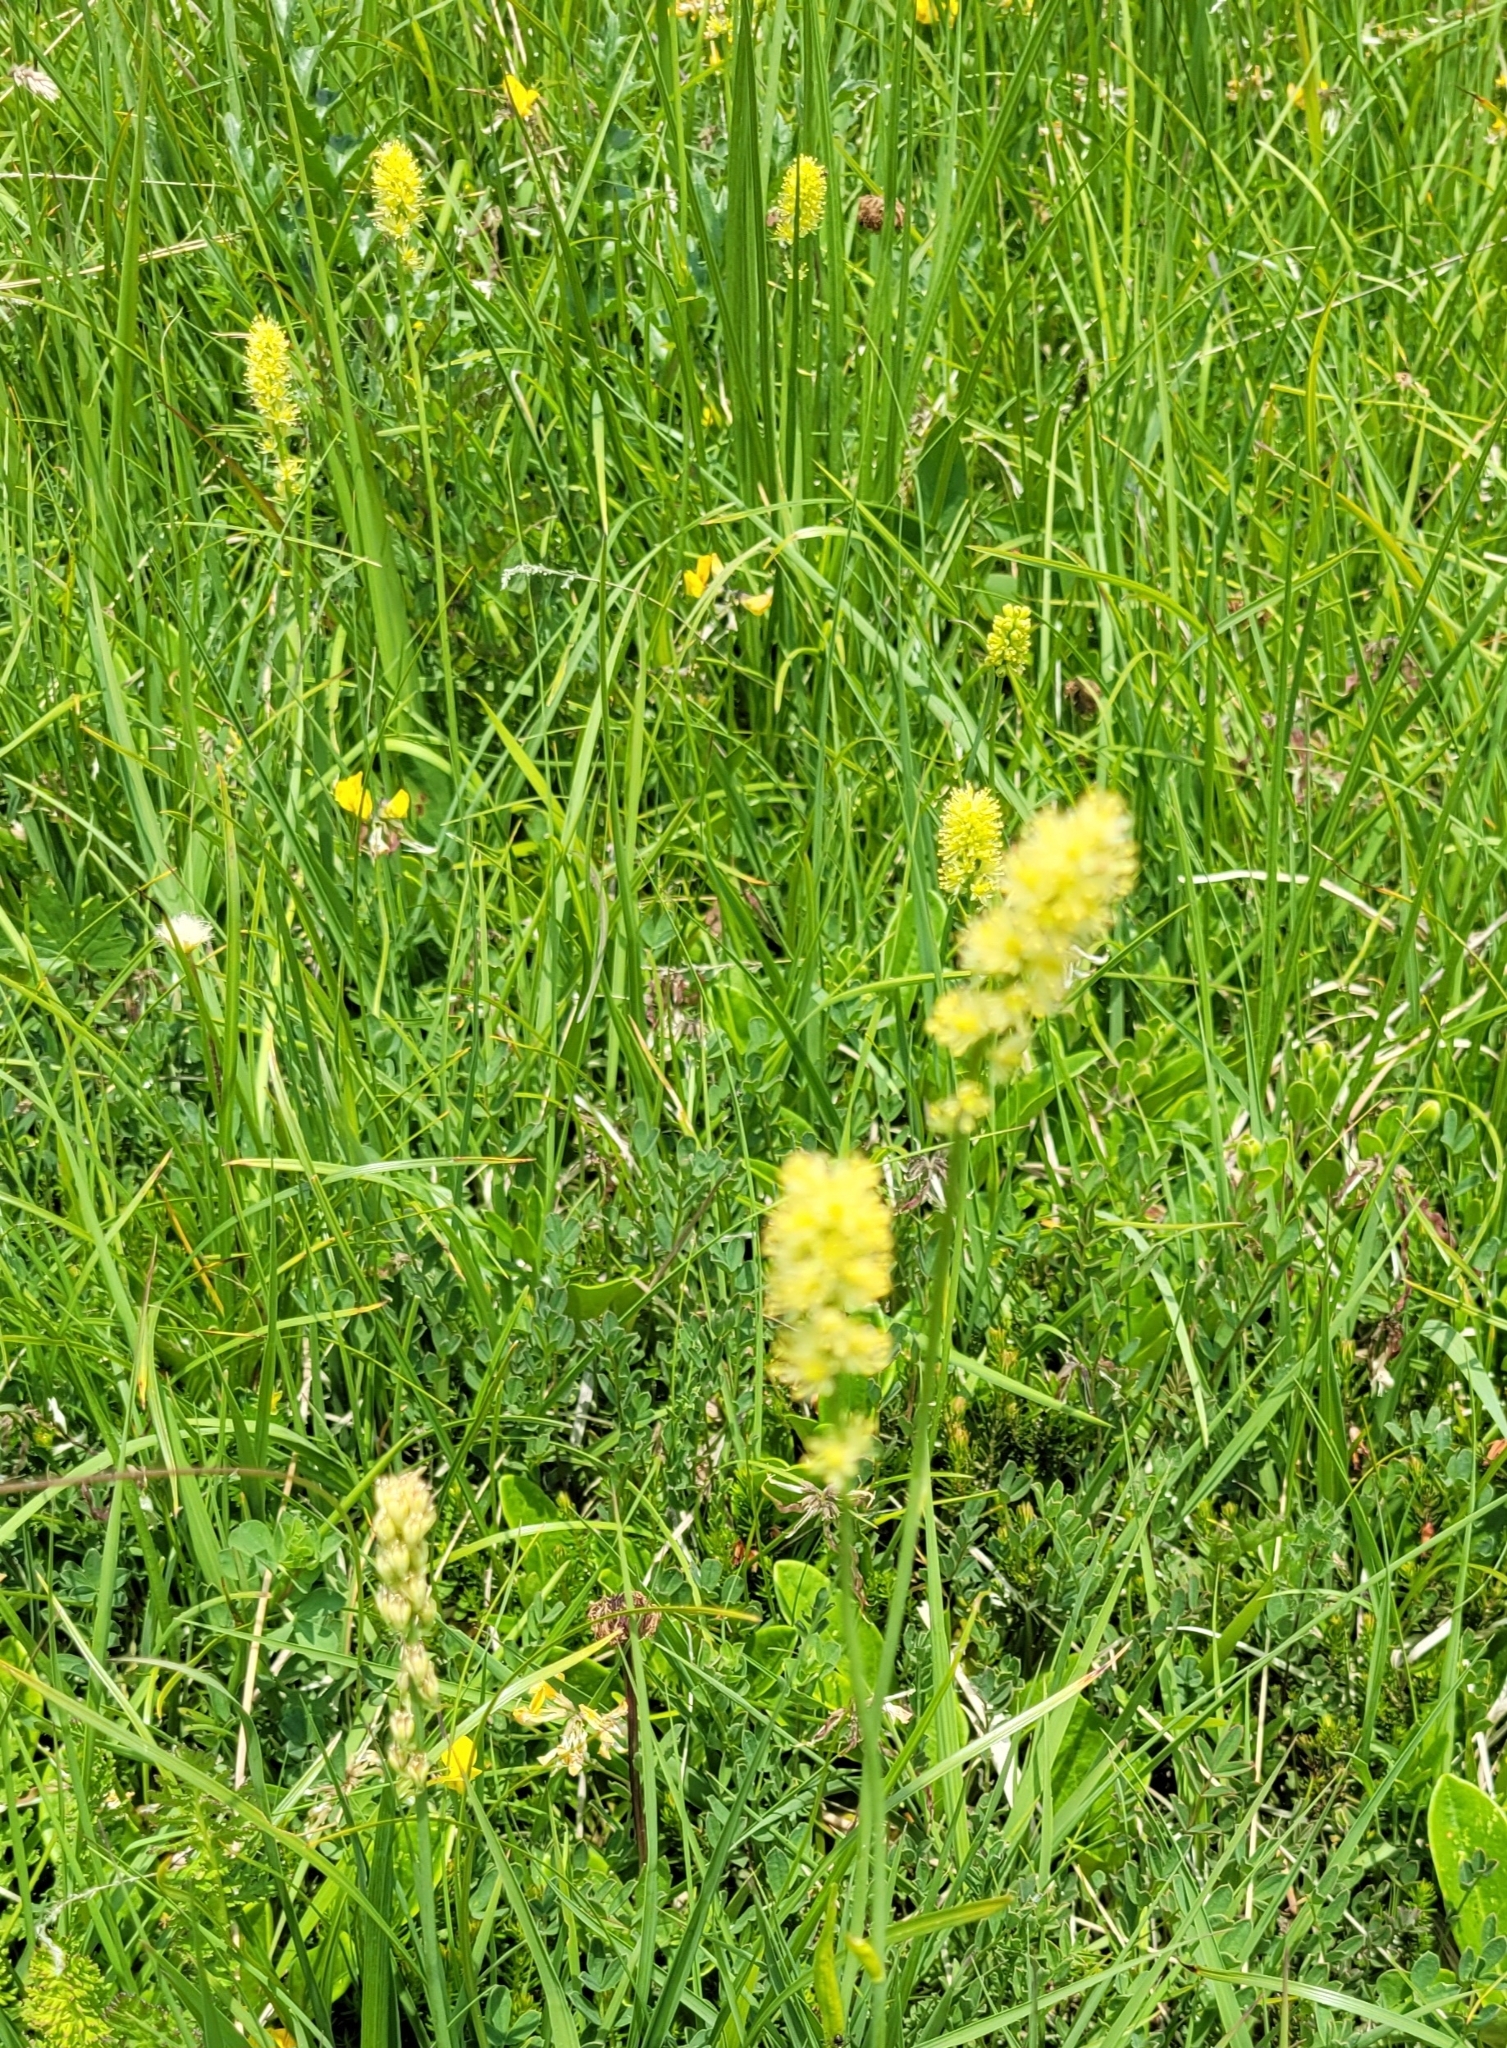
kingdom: Plantae
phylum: Tracheophyta
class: Liliopsida
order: Alismatales
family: Tofieldiaceae
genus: Tofieldia
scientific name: Tofieldia calyculata
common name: German-asphodel
